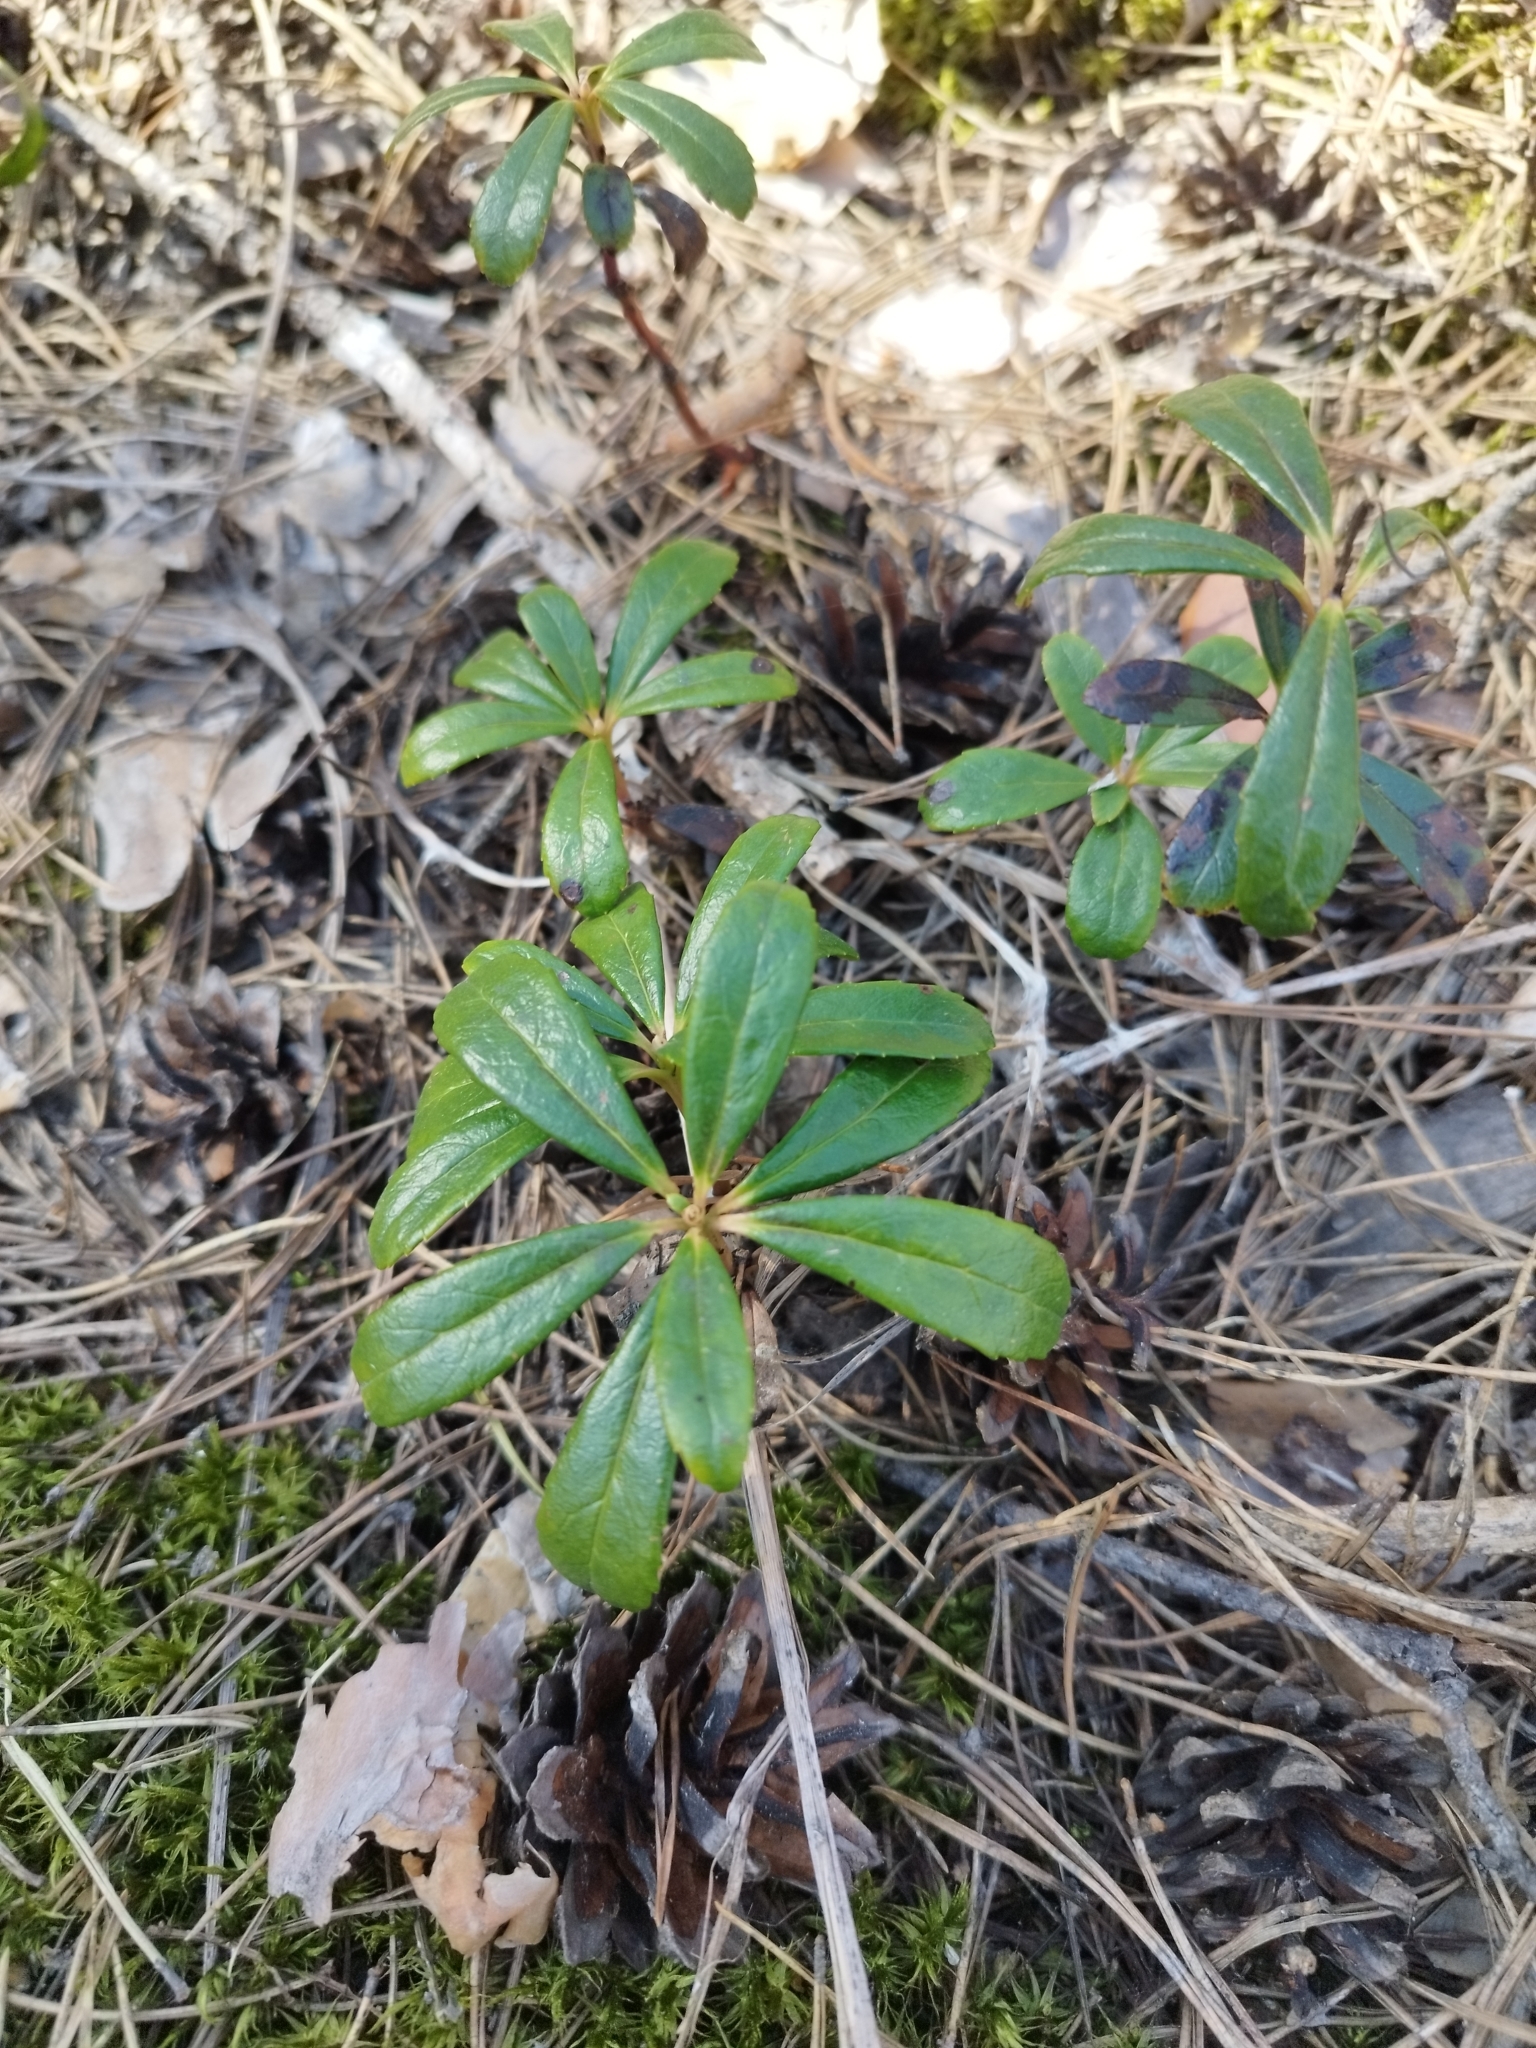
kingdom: Plantae
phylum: Tracheophyta
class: Magnoliopsida
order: Ericales
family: Ericaceae
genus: Chimaphila
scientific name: Chimaphila umbellata
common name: Pipsissewa
